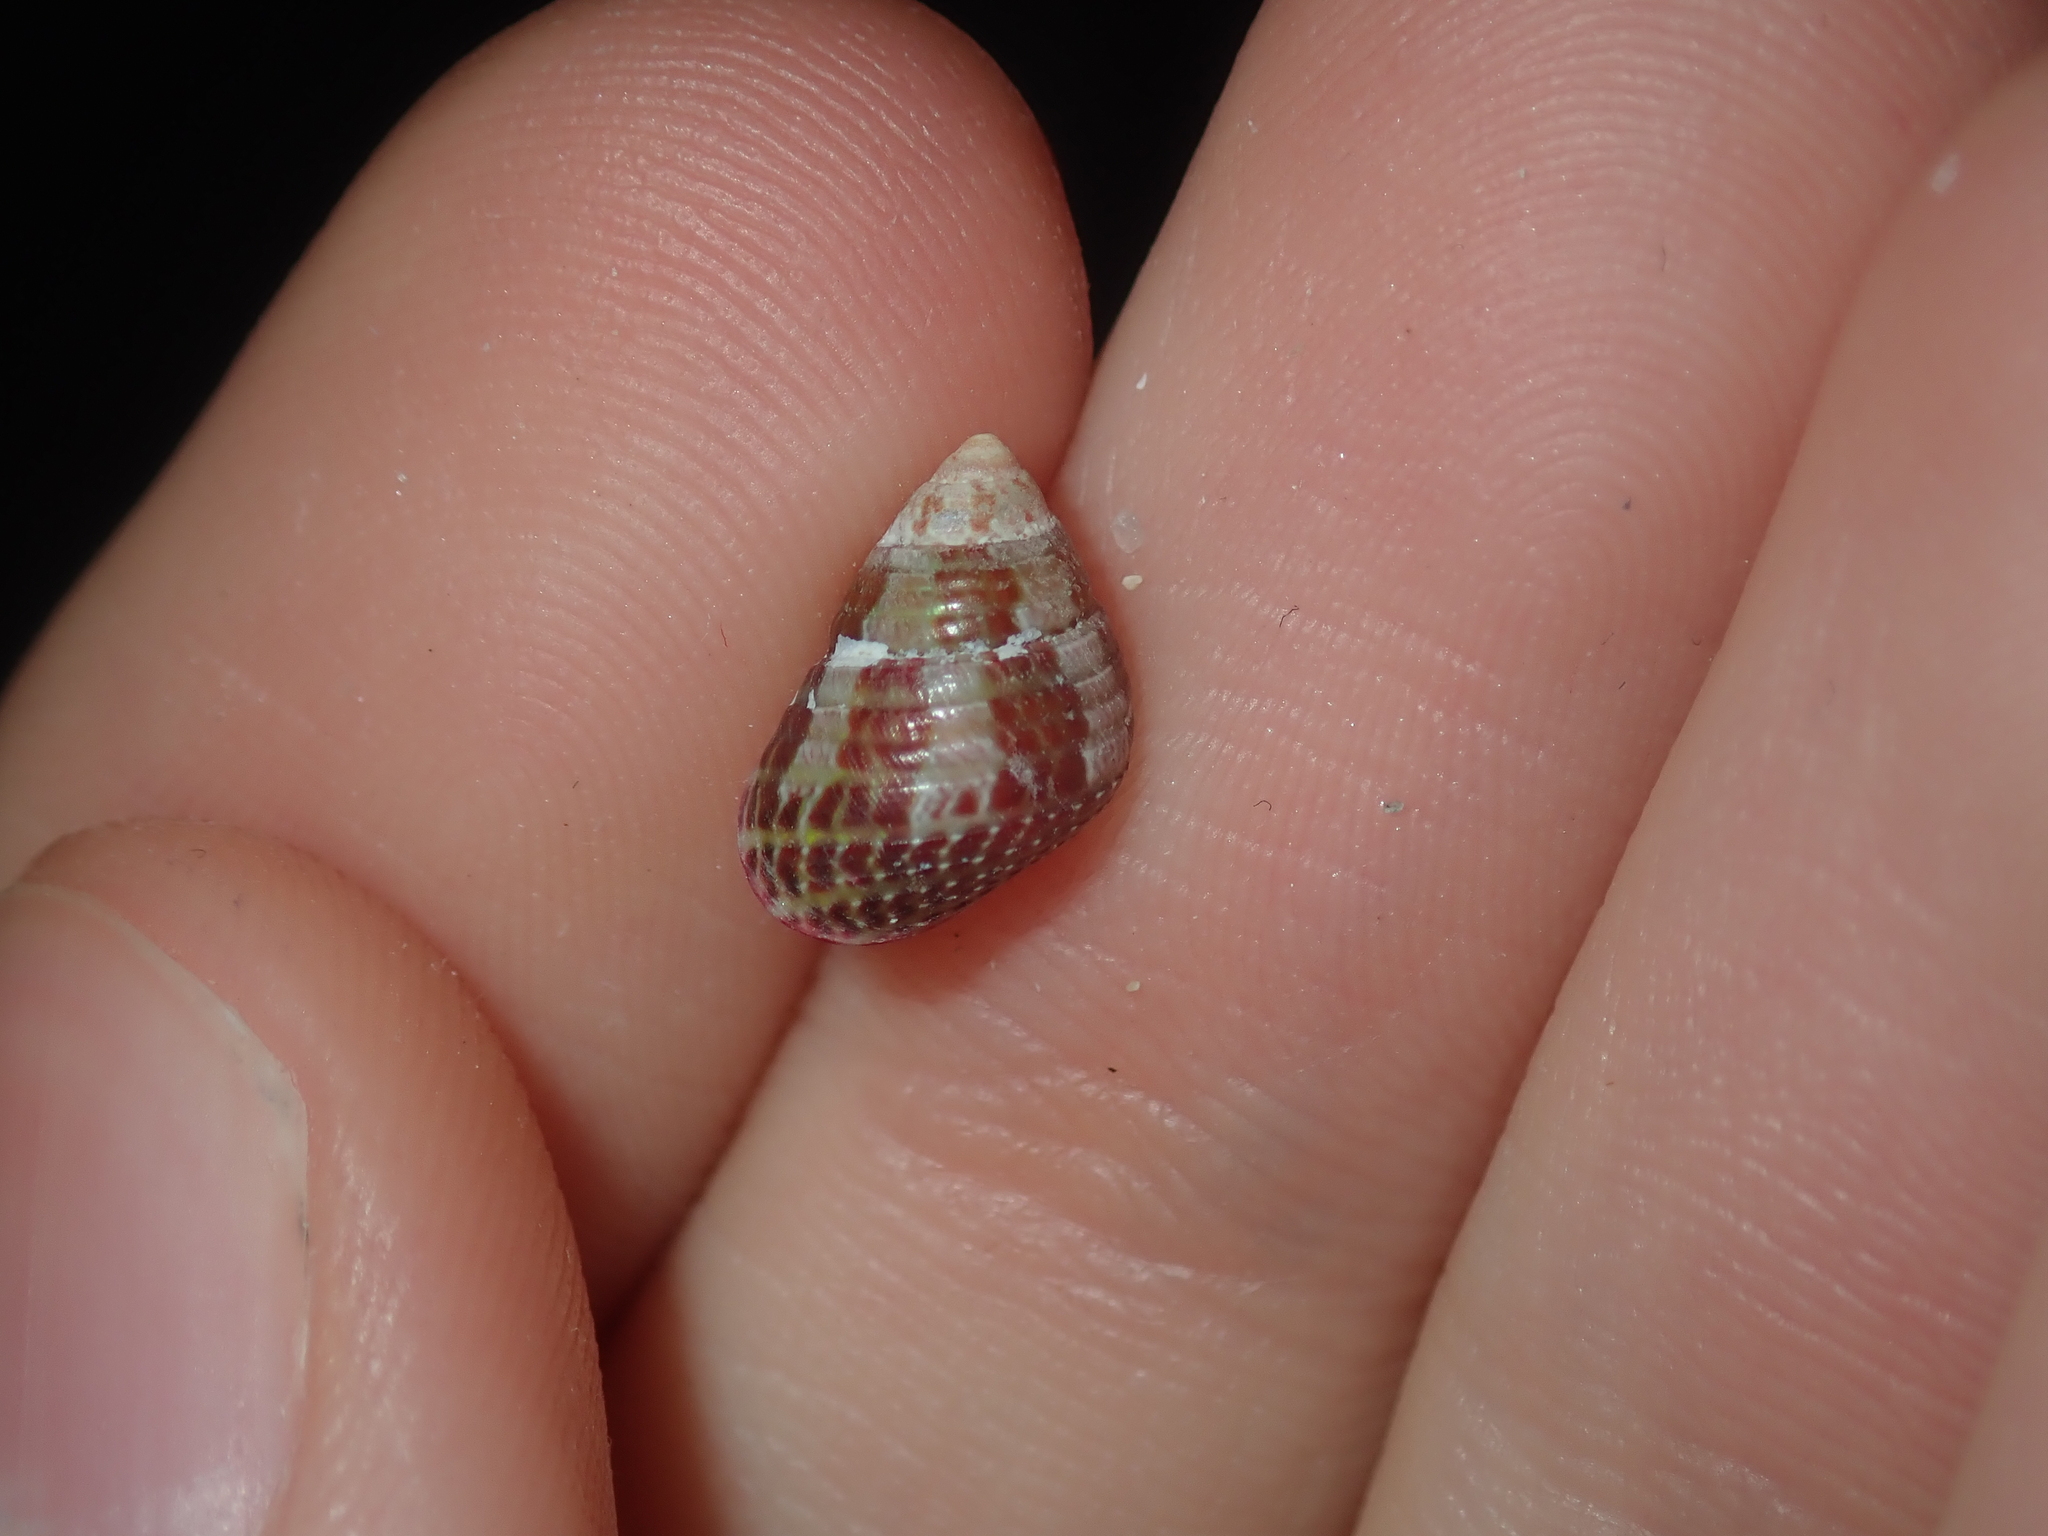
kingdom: Animalia
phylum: Mollusca
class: Gastropoda
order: Trochida
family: Trochidae
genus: Prothalotia
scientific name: Prothalotia pulcherrima
